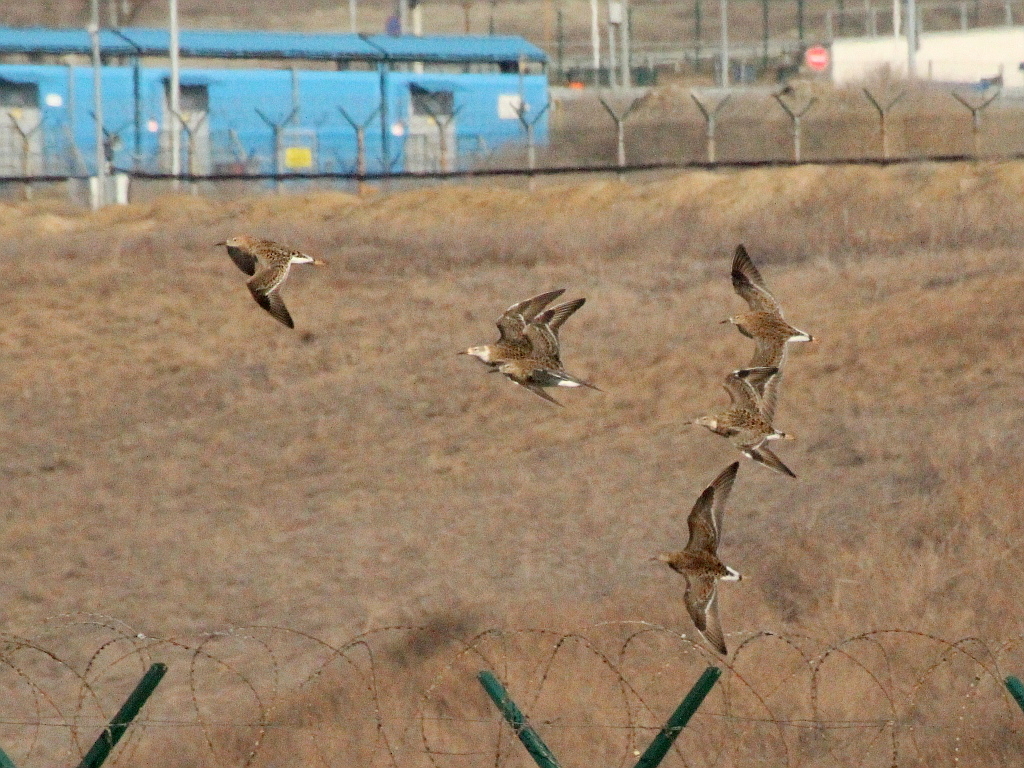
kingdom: Animalia
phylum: Chordata
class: Aves
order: Charadriiformes
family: Scolopacidae
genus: Calidris
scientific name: Calidris pugnax
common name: Ruff
